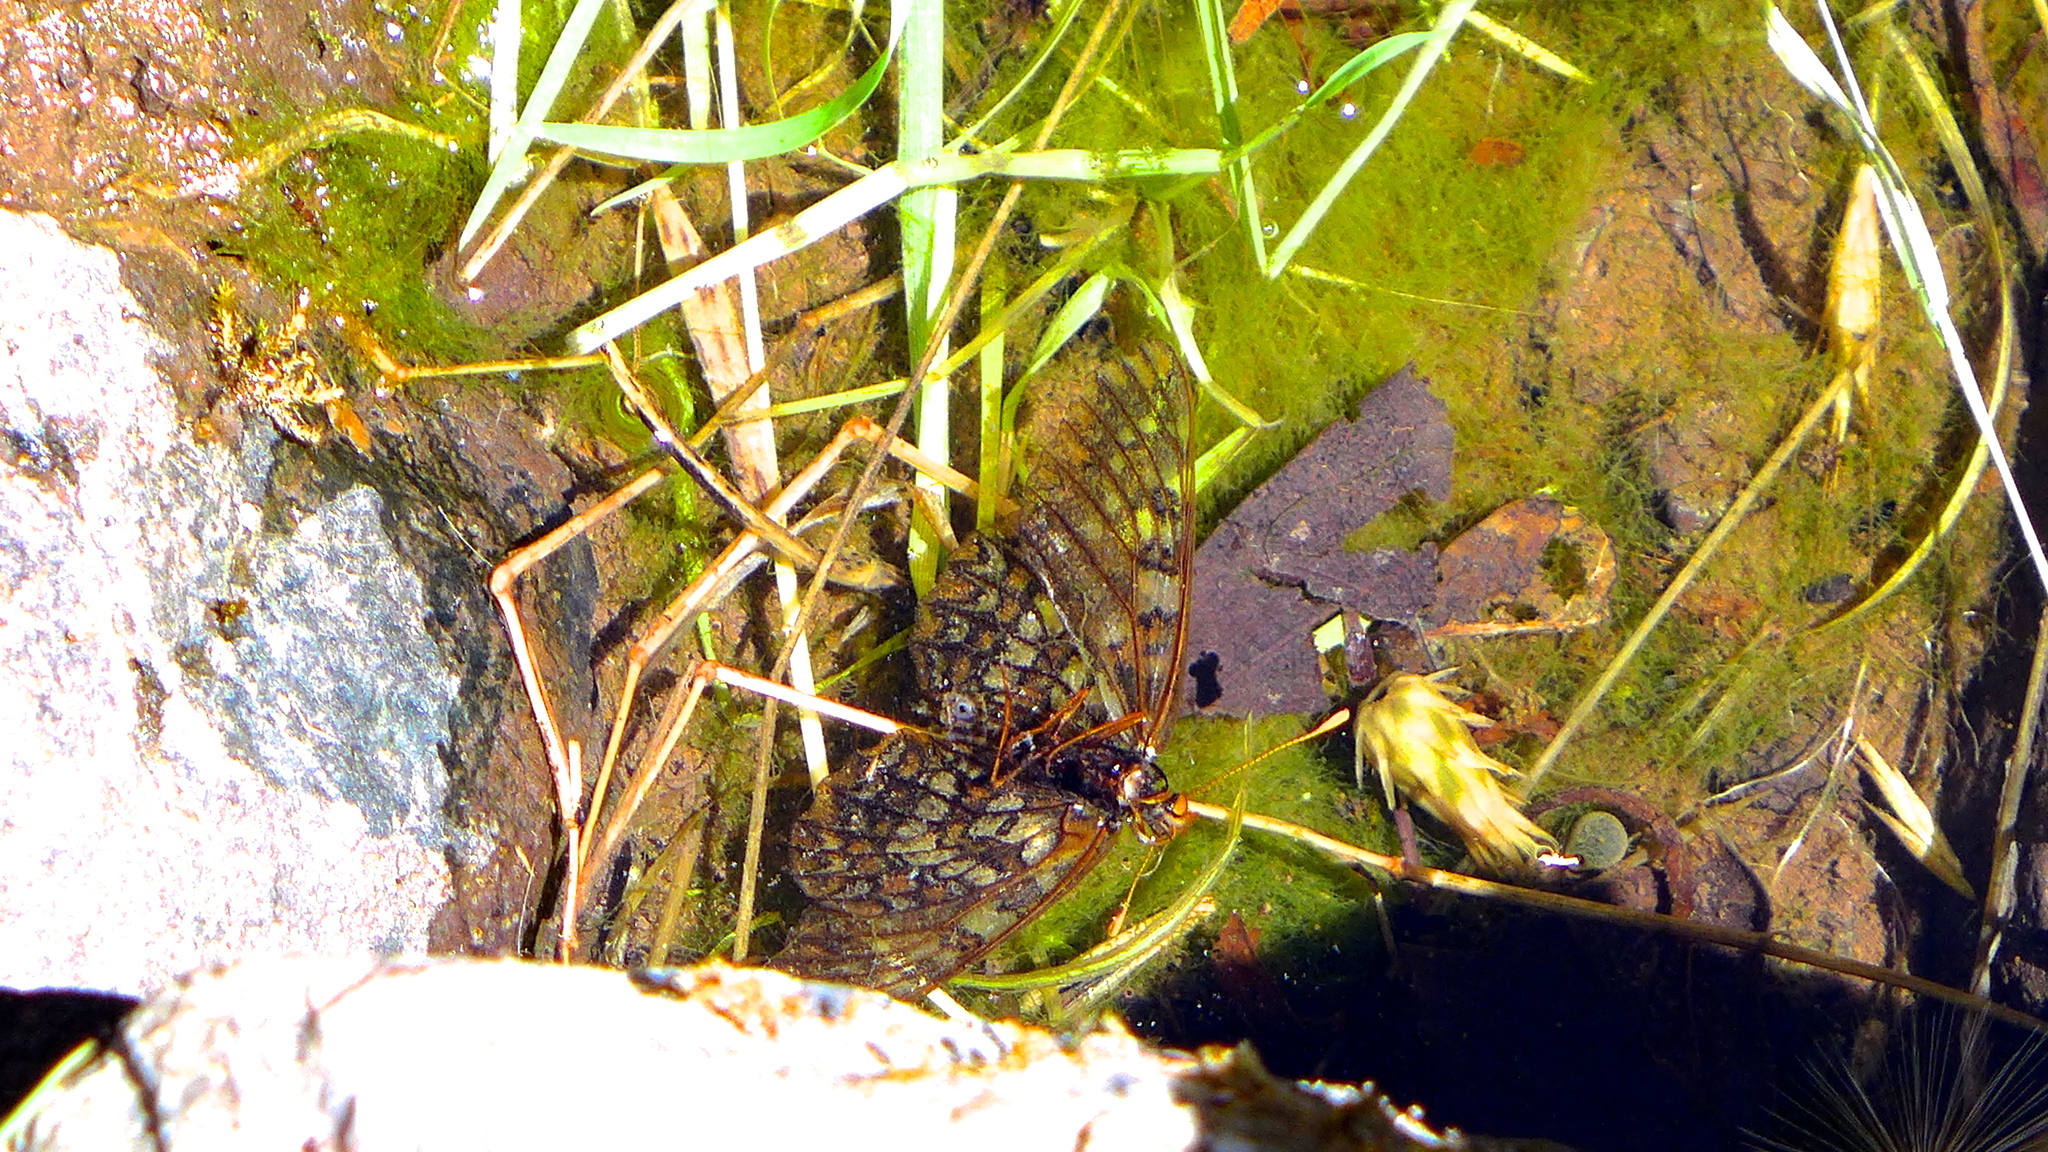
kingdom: Animalia
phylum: Arthropoda
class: Insecta
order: Lepidoptera
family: Nymphalidae
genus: Occidryas
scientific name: Occidryas chalcedona
